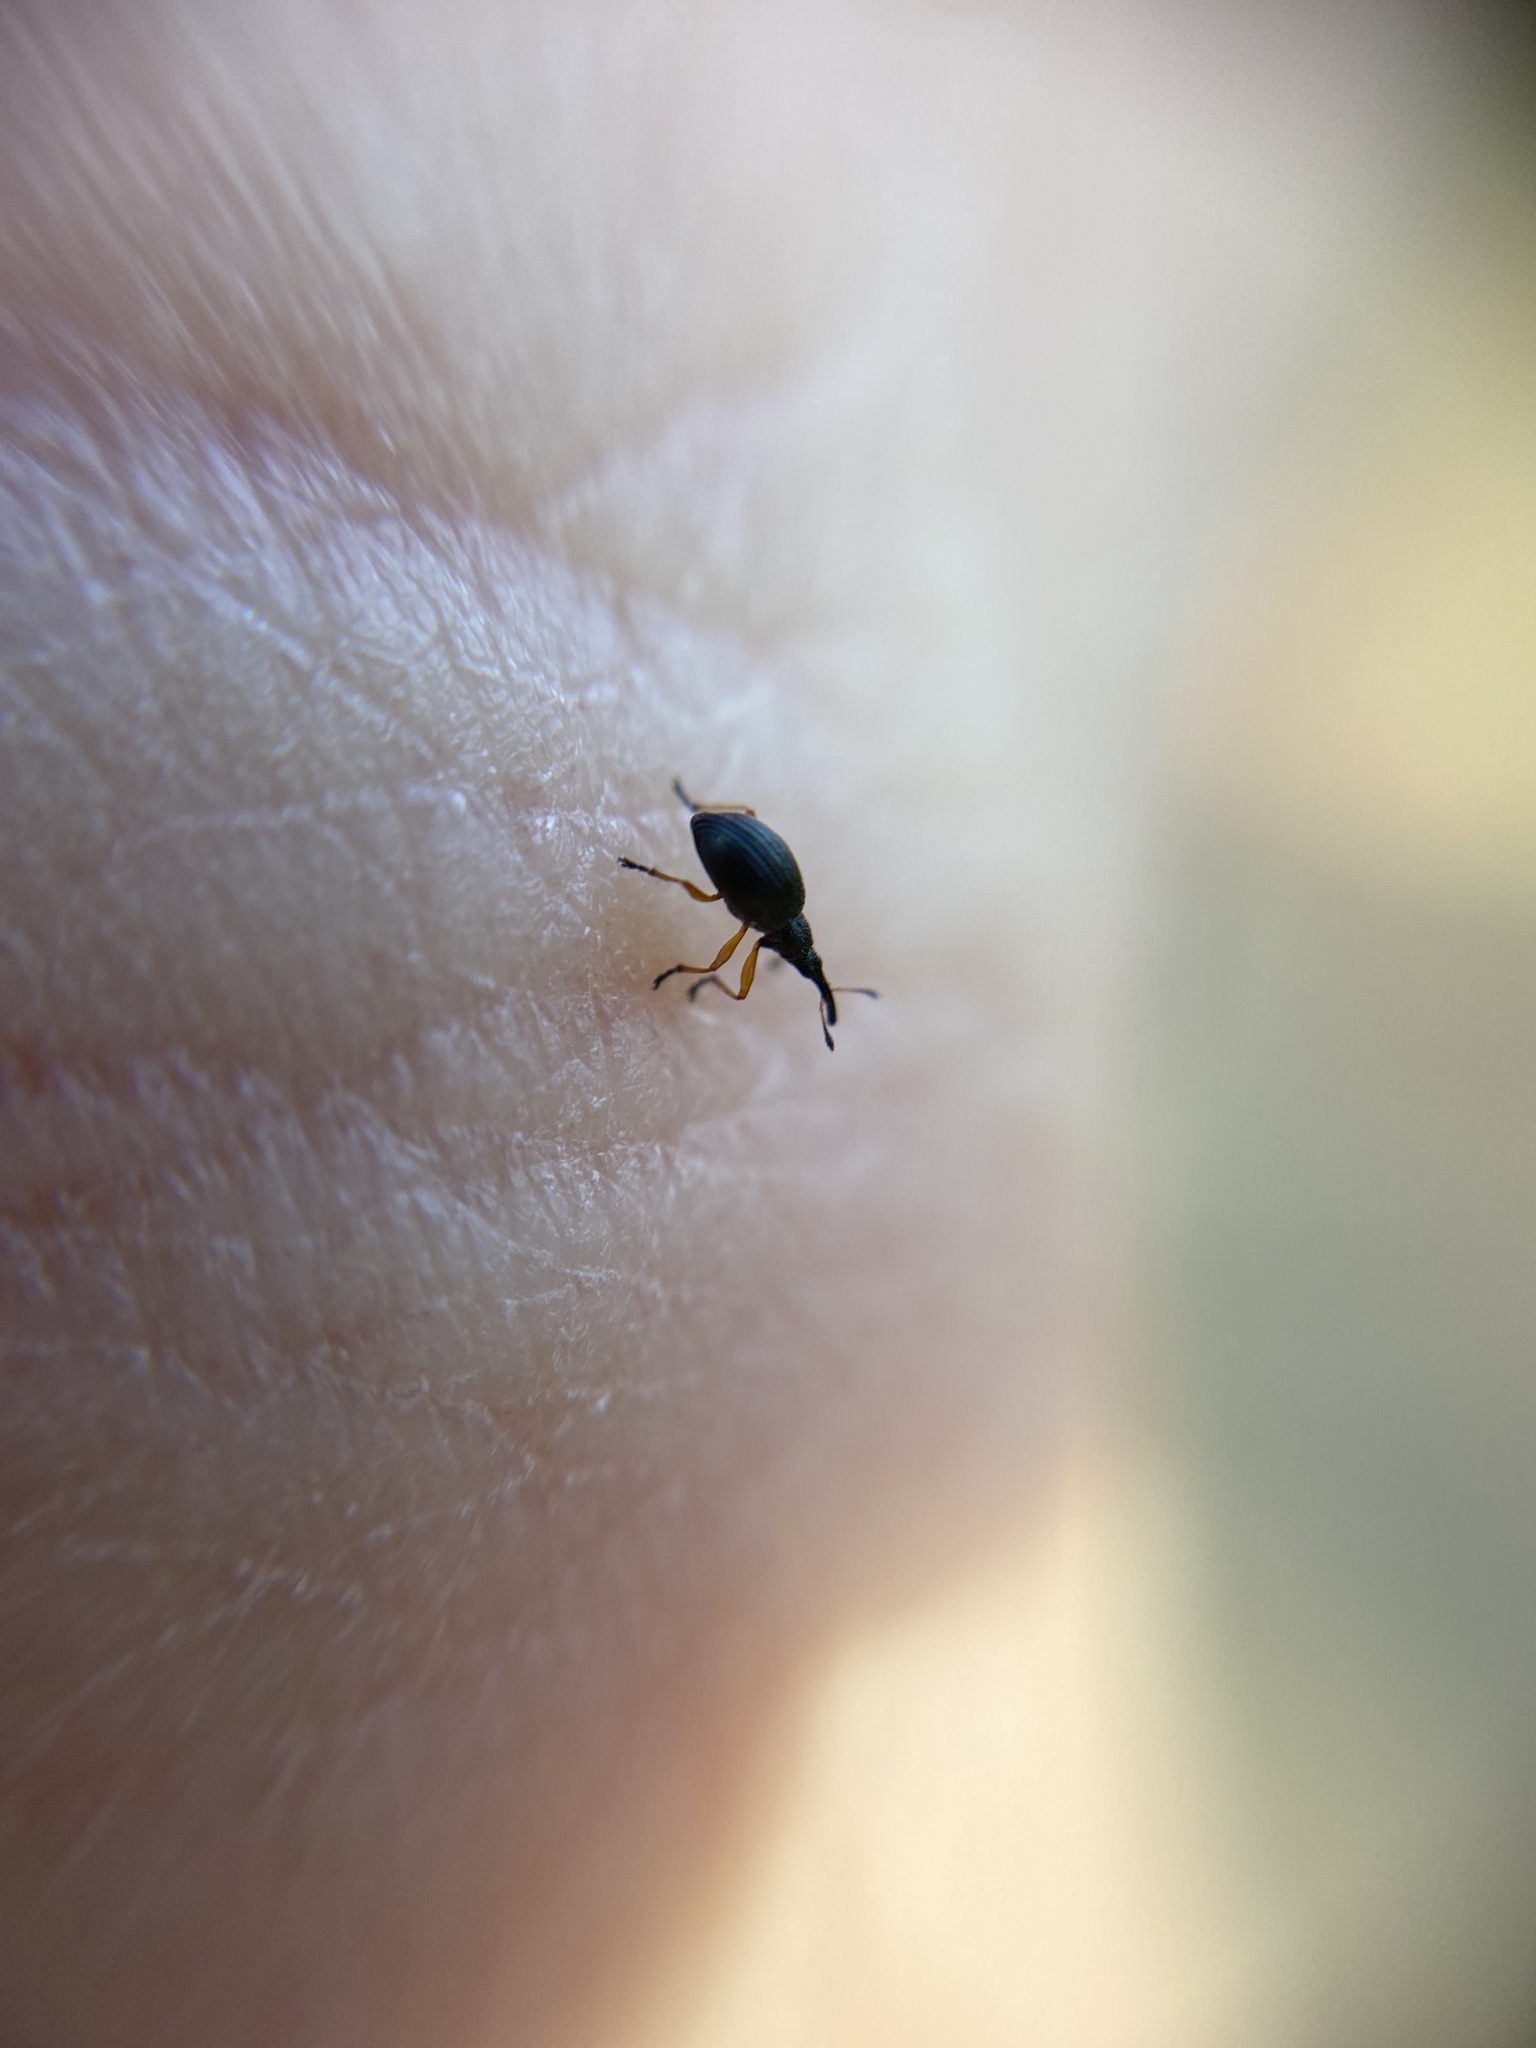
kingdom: Animalia
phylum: Arthropoda
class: Insecta
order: Coleoptera
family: Apionidae
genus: Protapion
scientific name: Protapion fulvipes
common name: White clover seed weevil
